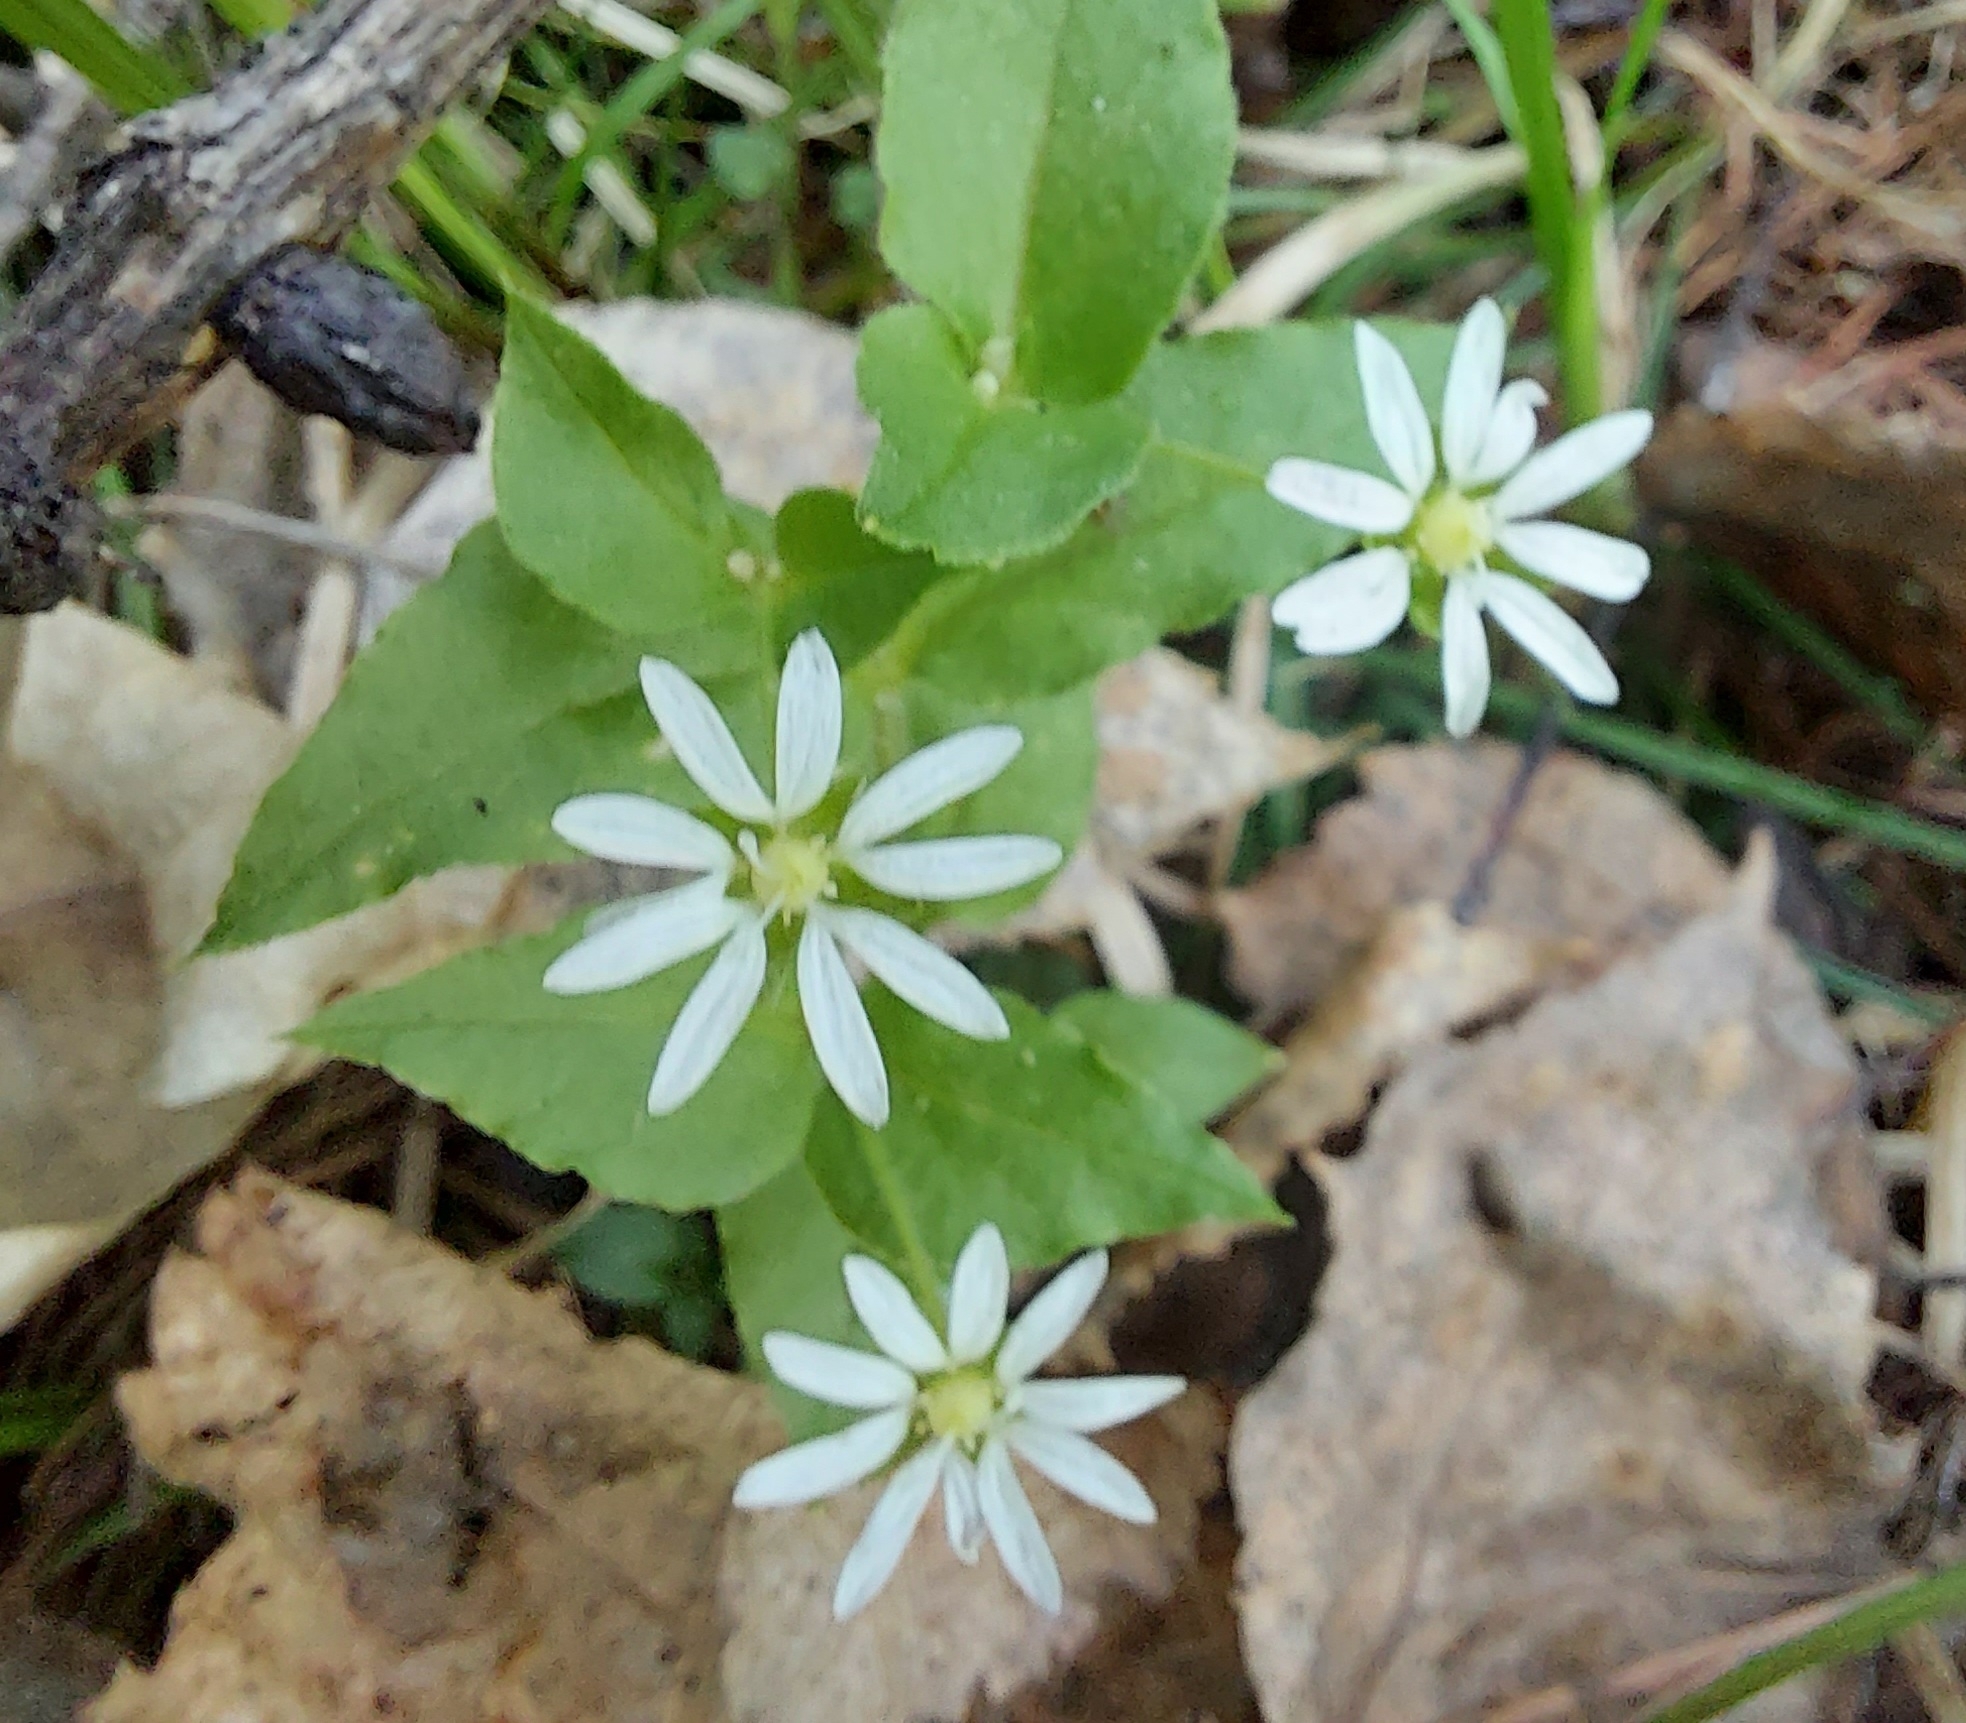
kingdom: Plantae
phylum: Tracheophyta
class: Magnoliopsida
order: Caryophyllales
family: Caryophyllaceae
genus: Stellaria
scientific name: Stellaria bungeana
